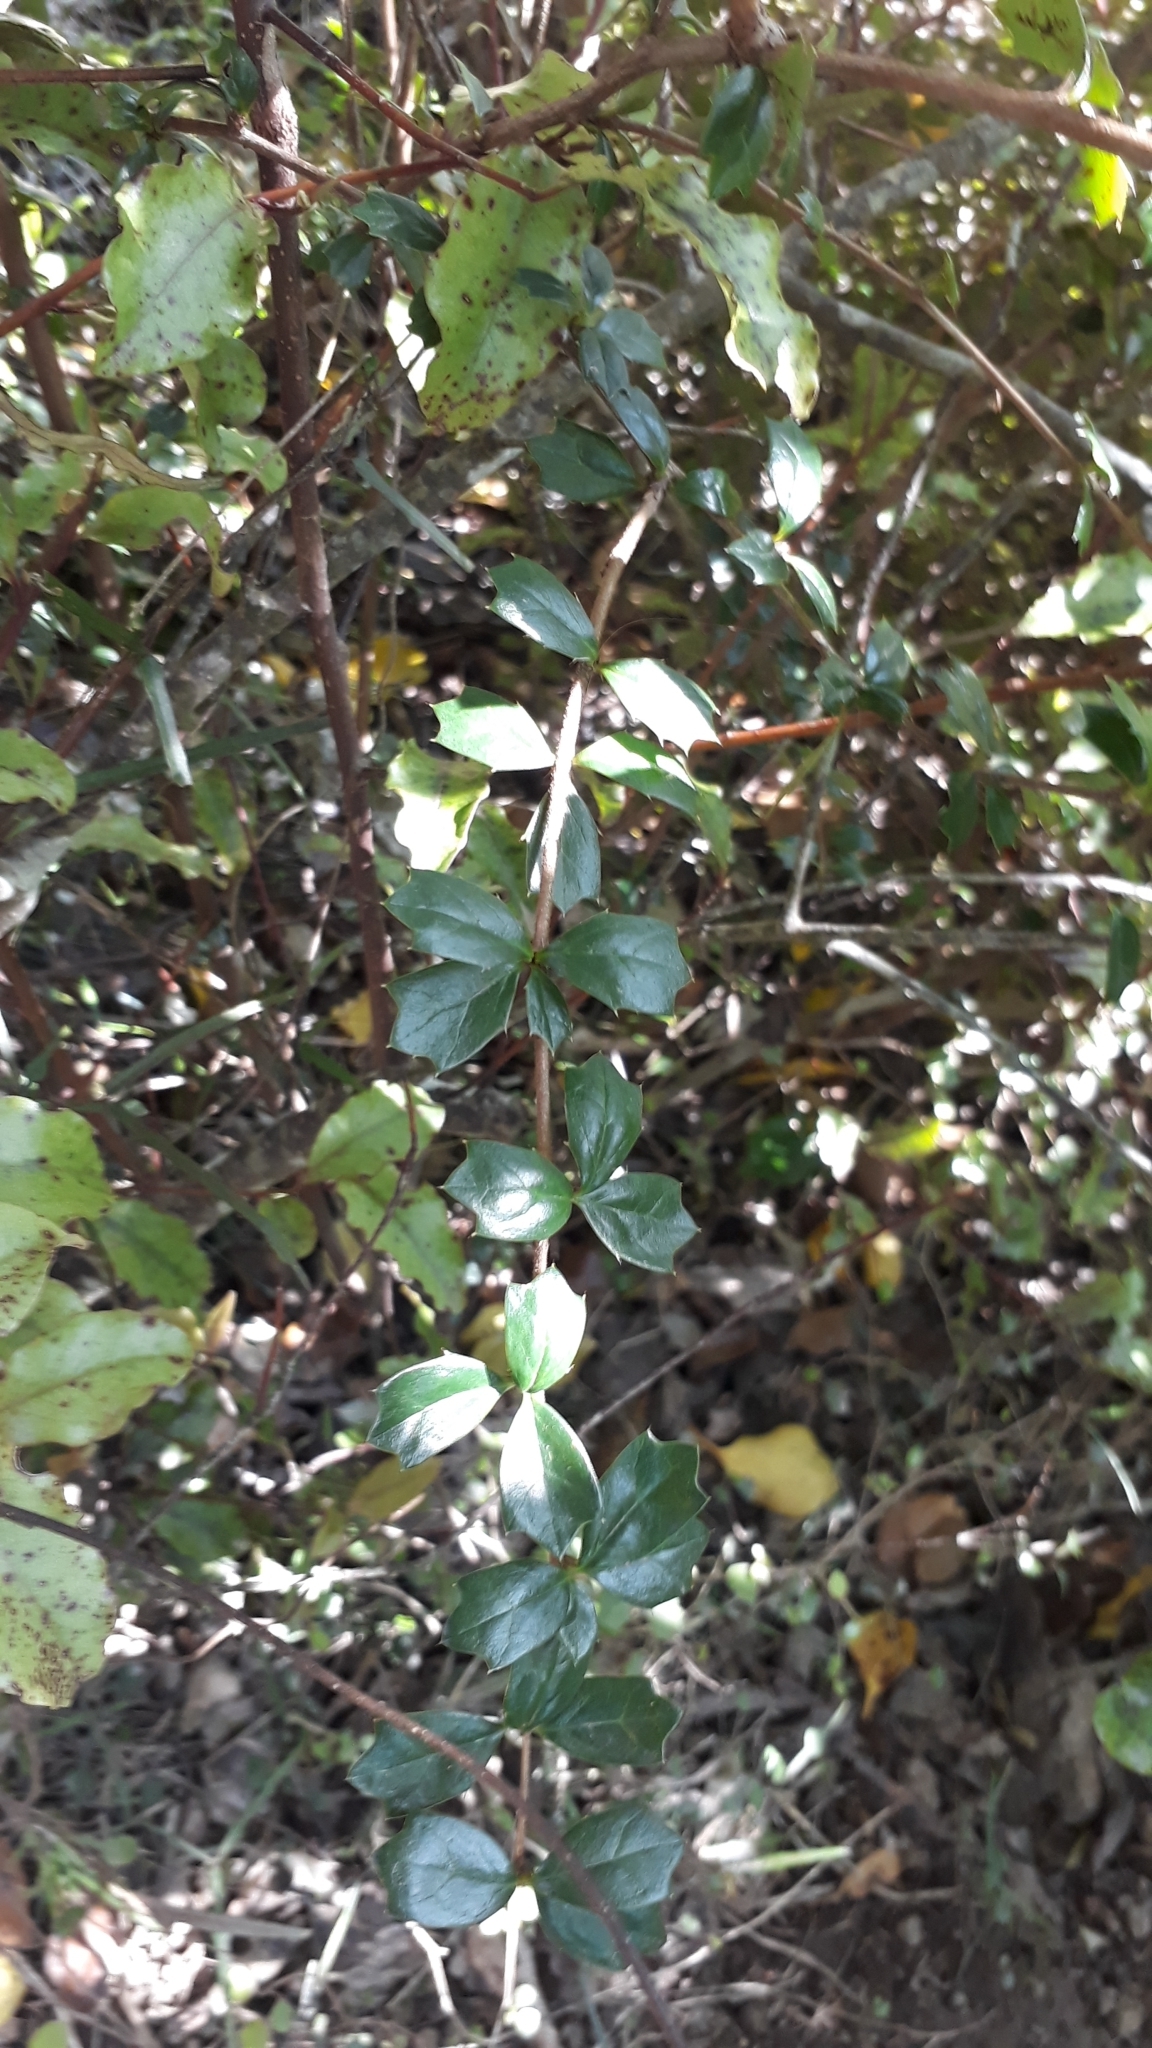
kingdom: Plantae
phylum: Tracheophyta
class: Magnoliopsida
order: Ranunculales
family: Berberidaceae
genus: Berberis
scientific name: Berberis darwinii
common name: Darwin's barberry
